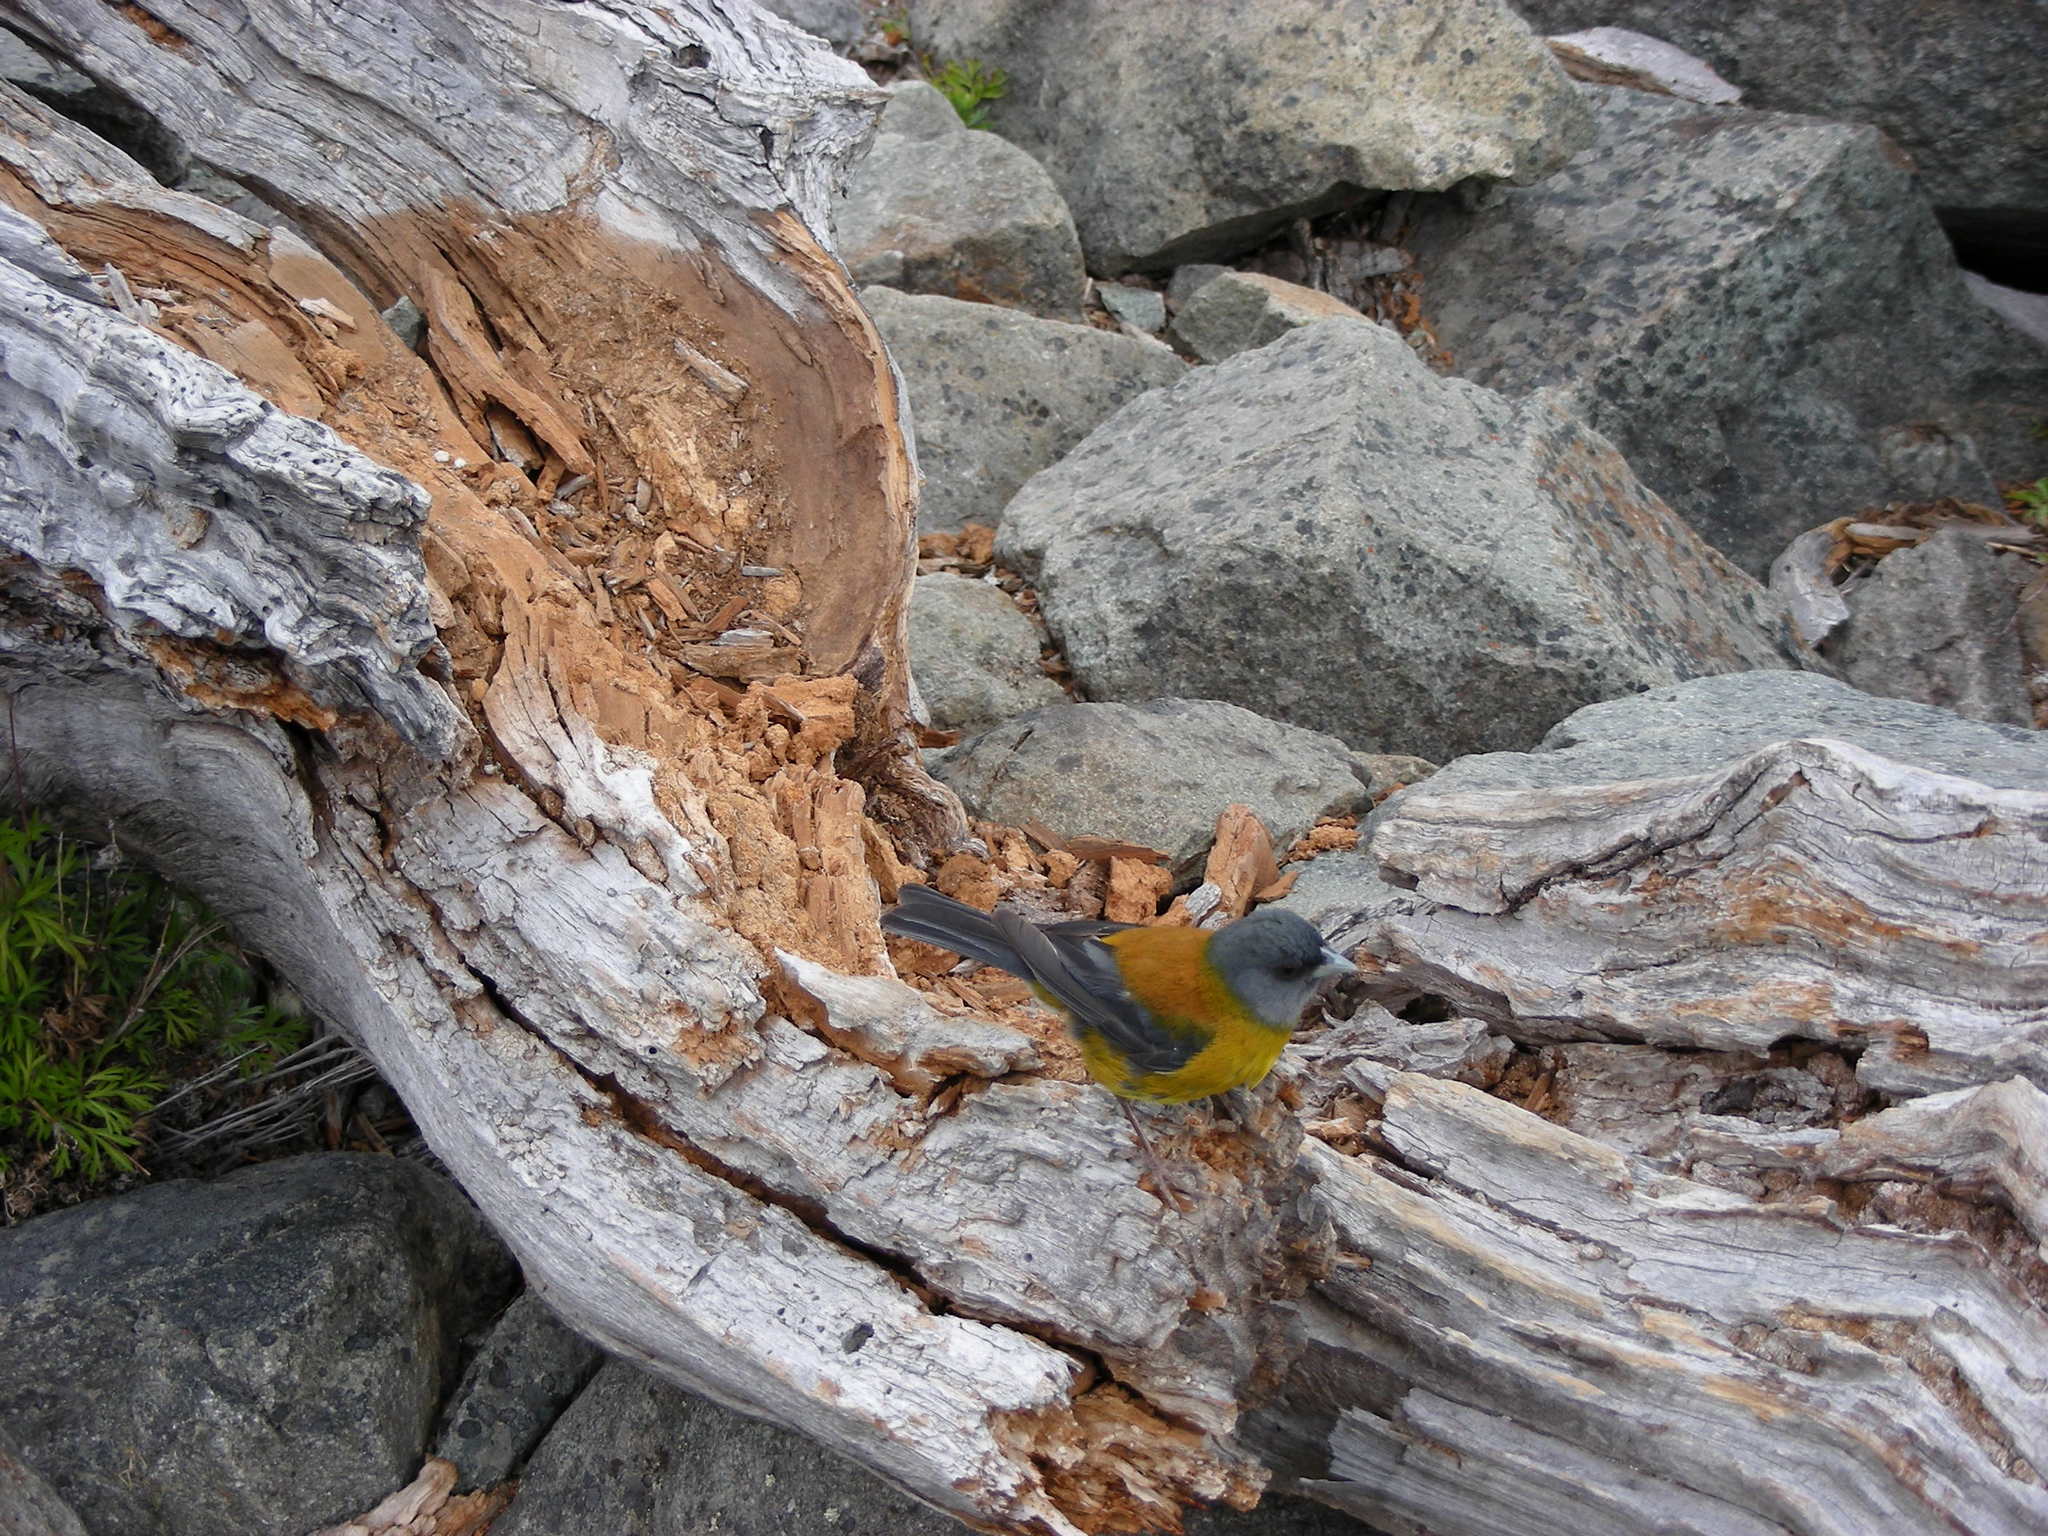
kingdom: Animalia
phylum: Chordata
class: Aves
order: Passeriformes
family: Thraupidae
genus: Phrygilus
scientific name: Phrygilus patagonicus
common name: Patagonian sierra finch
